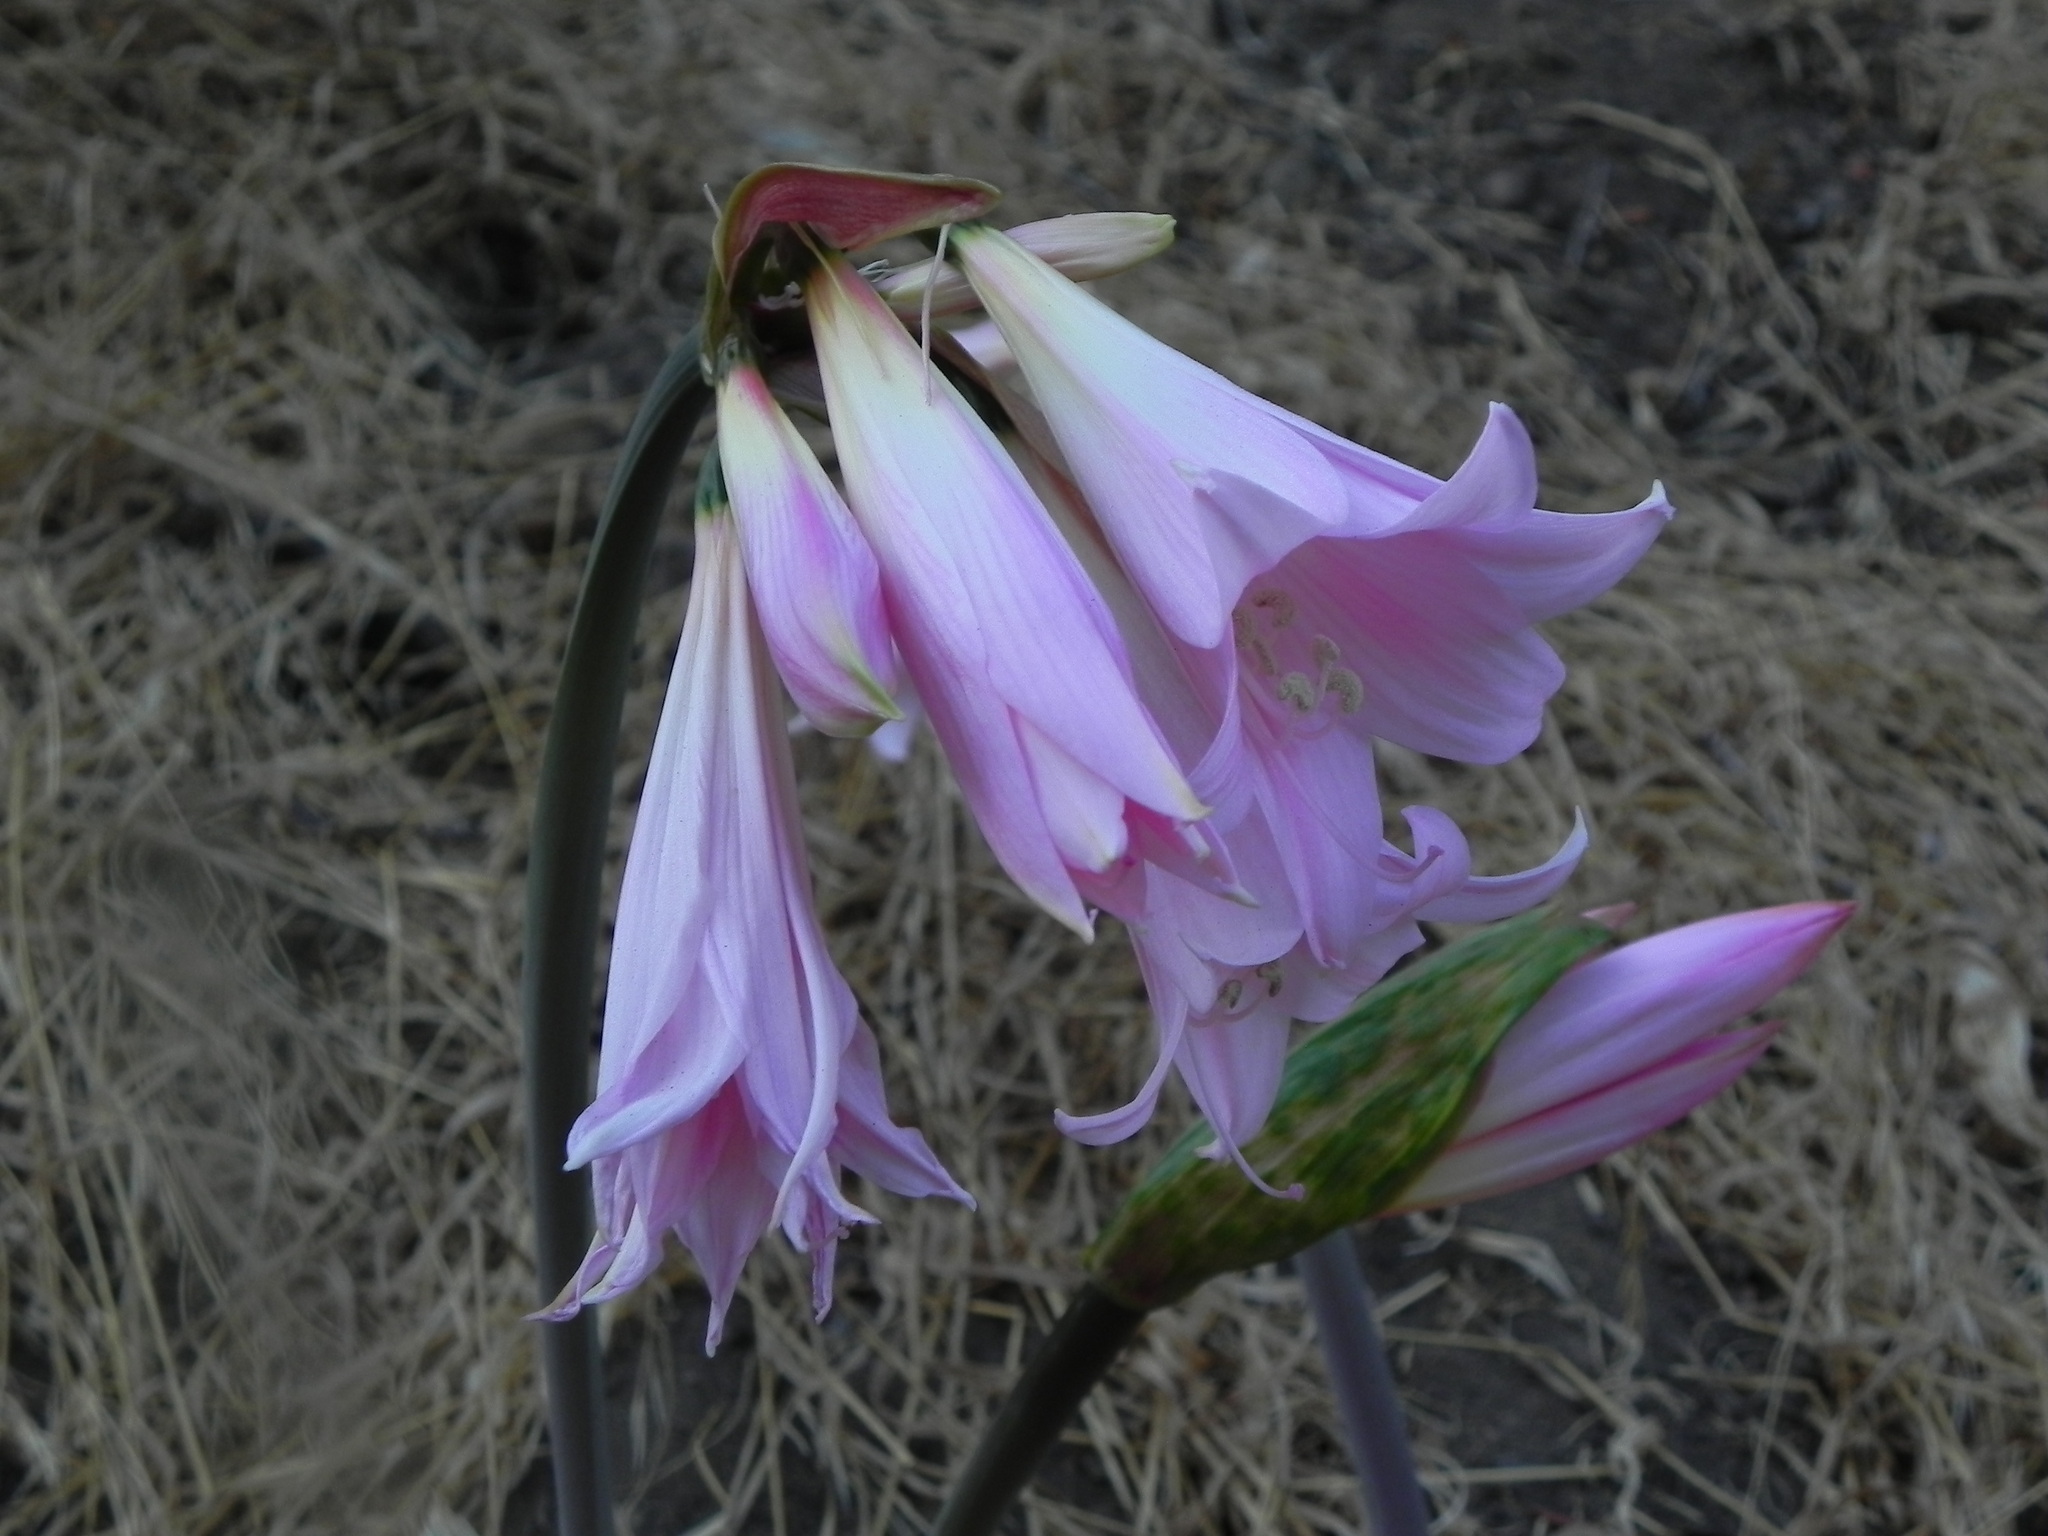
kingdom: Plantae
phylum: Tracheophyta
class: Liliopsida
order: Asparagales
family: Amaryllidaceae
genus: Amaryllis
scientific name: Amaryllis belladonna
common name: Jersey lily
